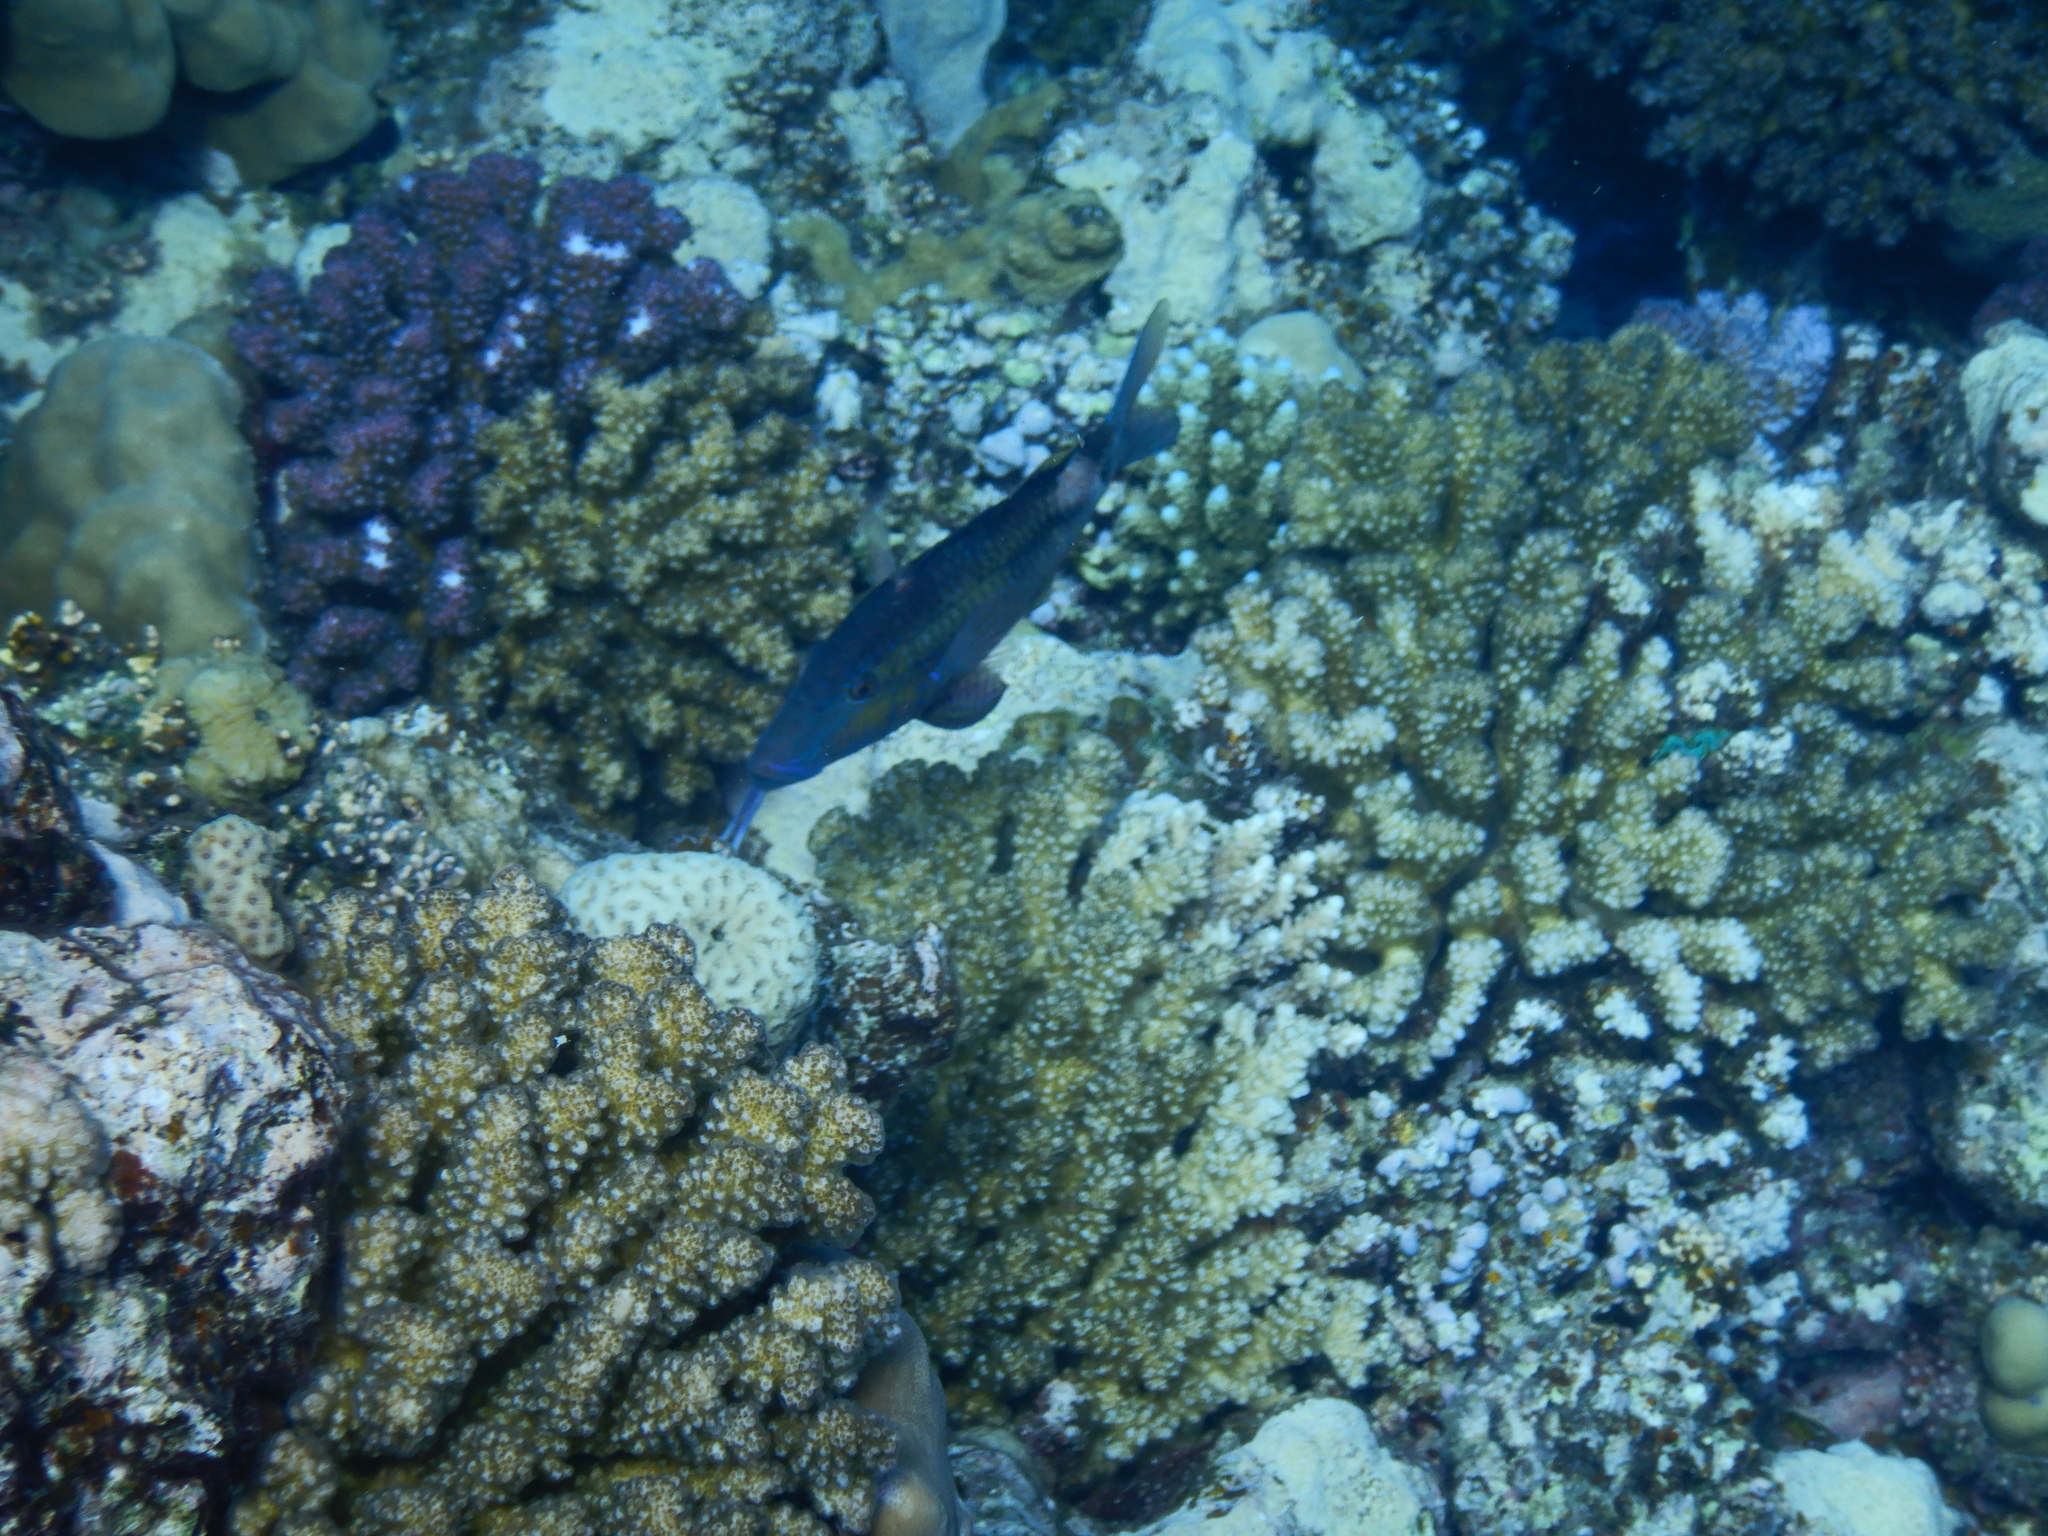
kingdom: Animalia
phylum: Chordata
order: Perciformes
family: Mullidae
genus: Parupeneus
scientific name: Parupeneus macronemus
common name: Long-barbel goatfish
